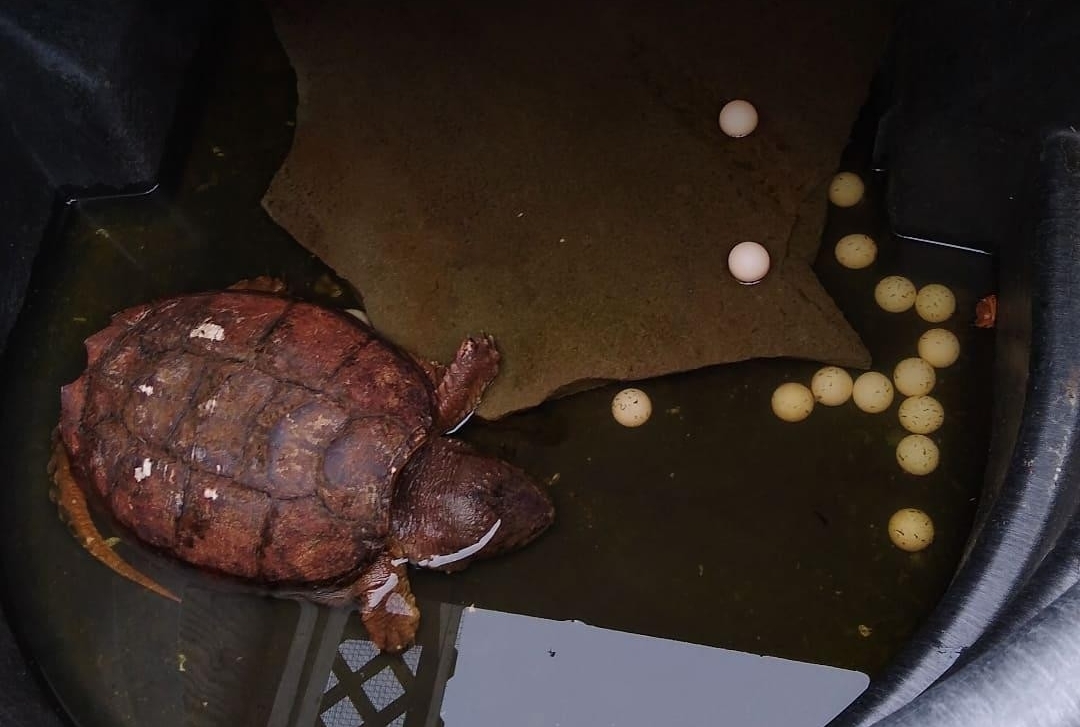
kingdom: Animalia
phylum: Chordata
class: Testudines
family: Chelydridae
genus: Chelydra
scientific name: Chelydra serpentina
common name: Common snapping turtle
